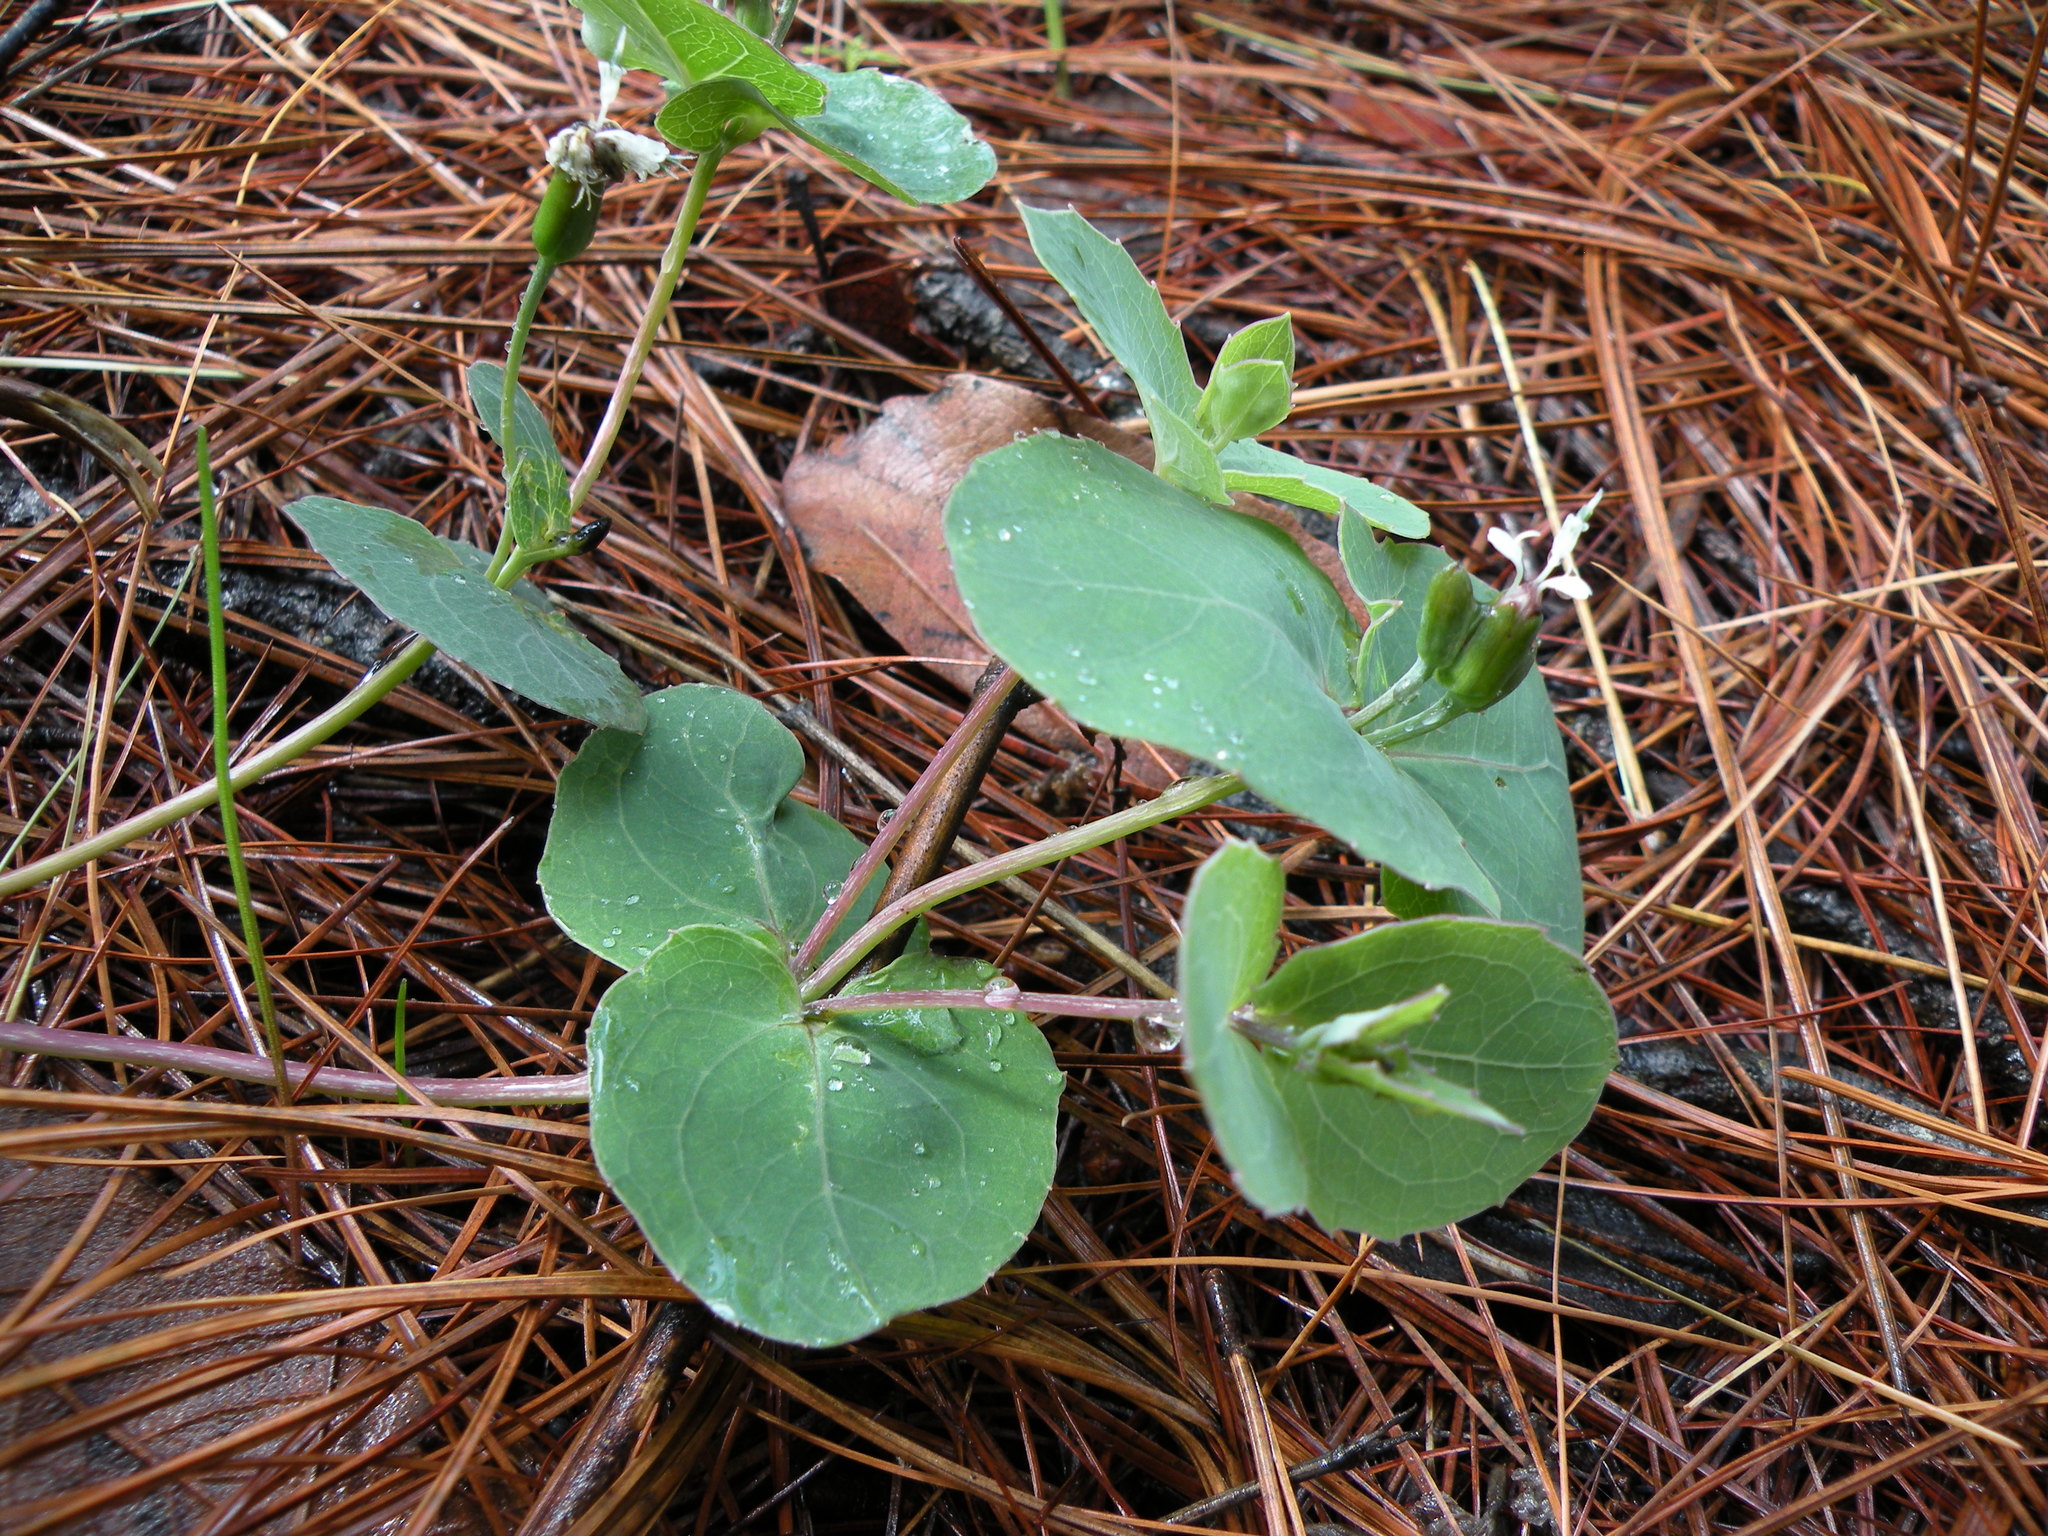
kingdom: Plantae
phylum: Tracheophyta
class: Magnoliopsida
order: Asterales
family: Asteraceae
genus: Guardiola
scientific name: Guardiola rosei
